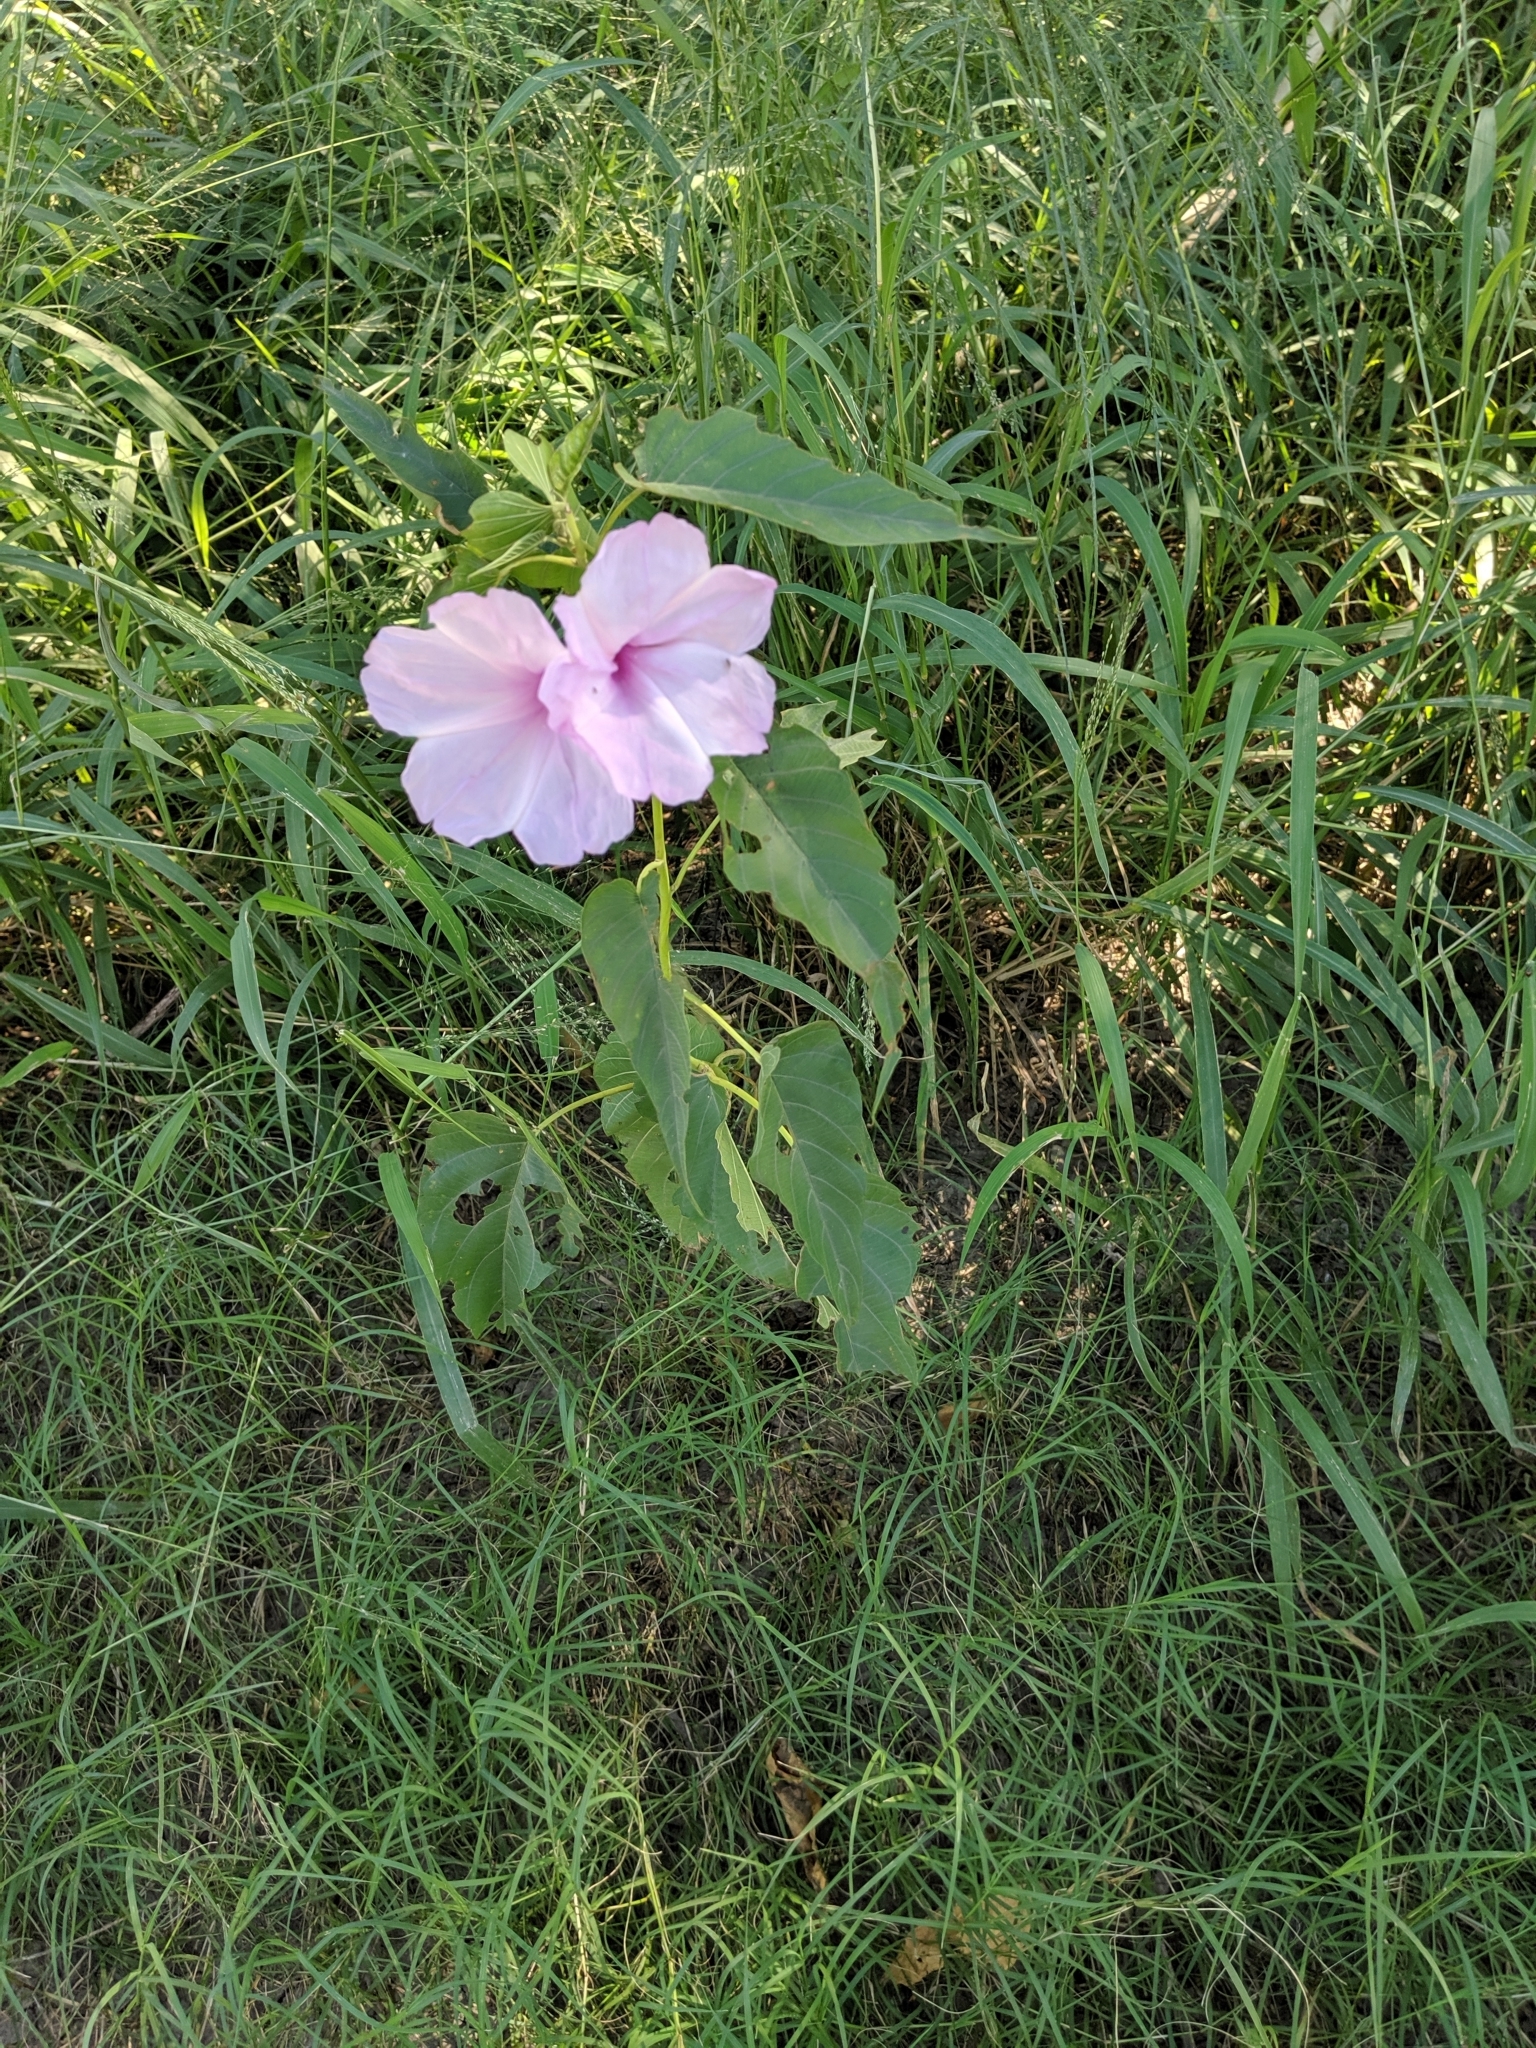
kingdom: Plantae
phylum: Tracheophyta
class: Magnoliopsida
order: Solanales
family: Convolvulaceae
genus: Ipomoea
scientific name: Ipomoea carnea
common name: Morning-glory
